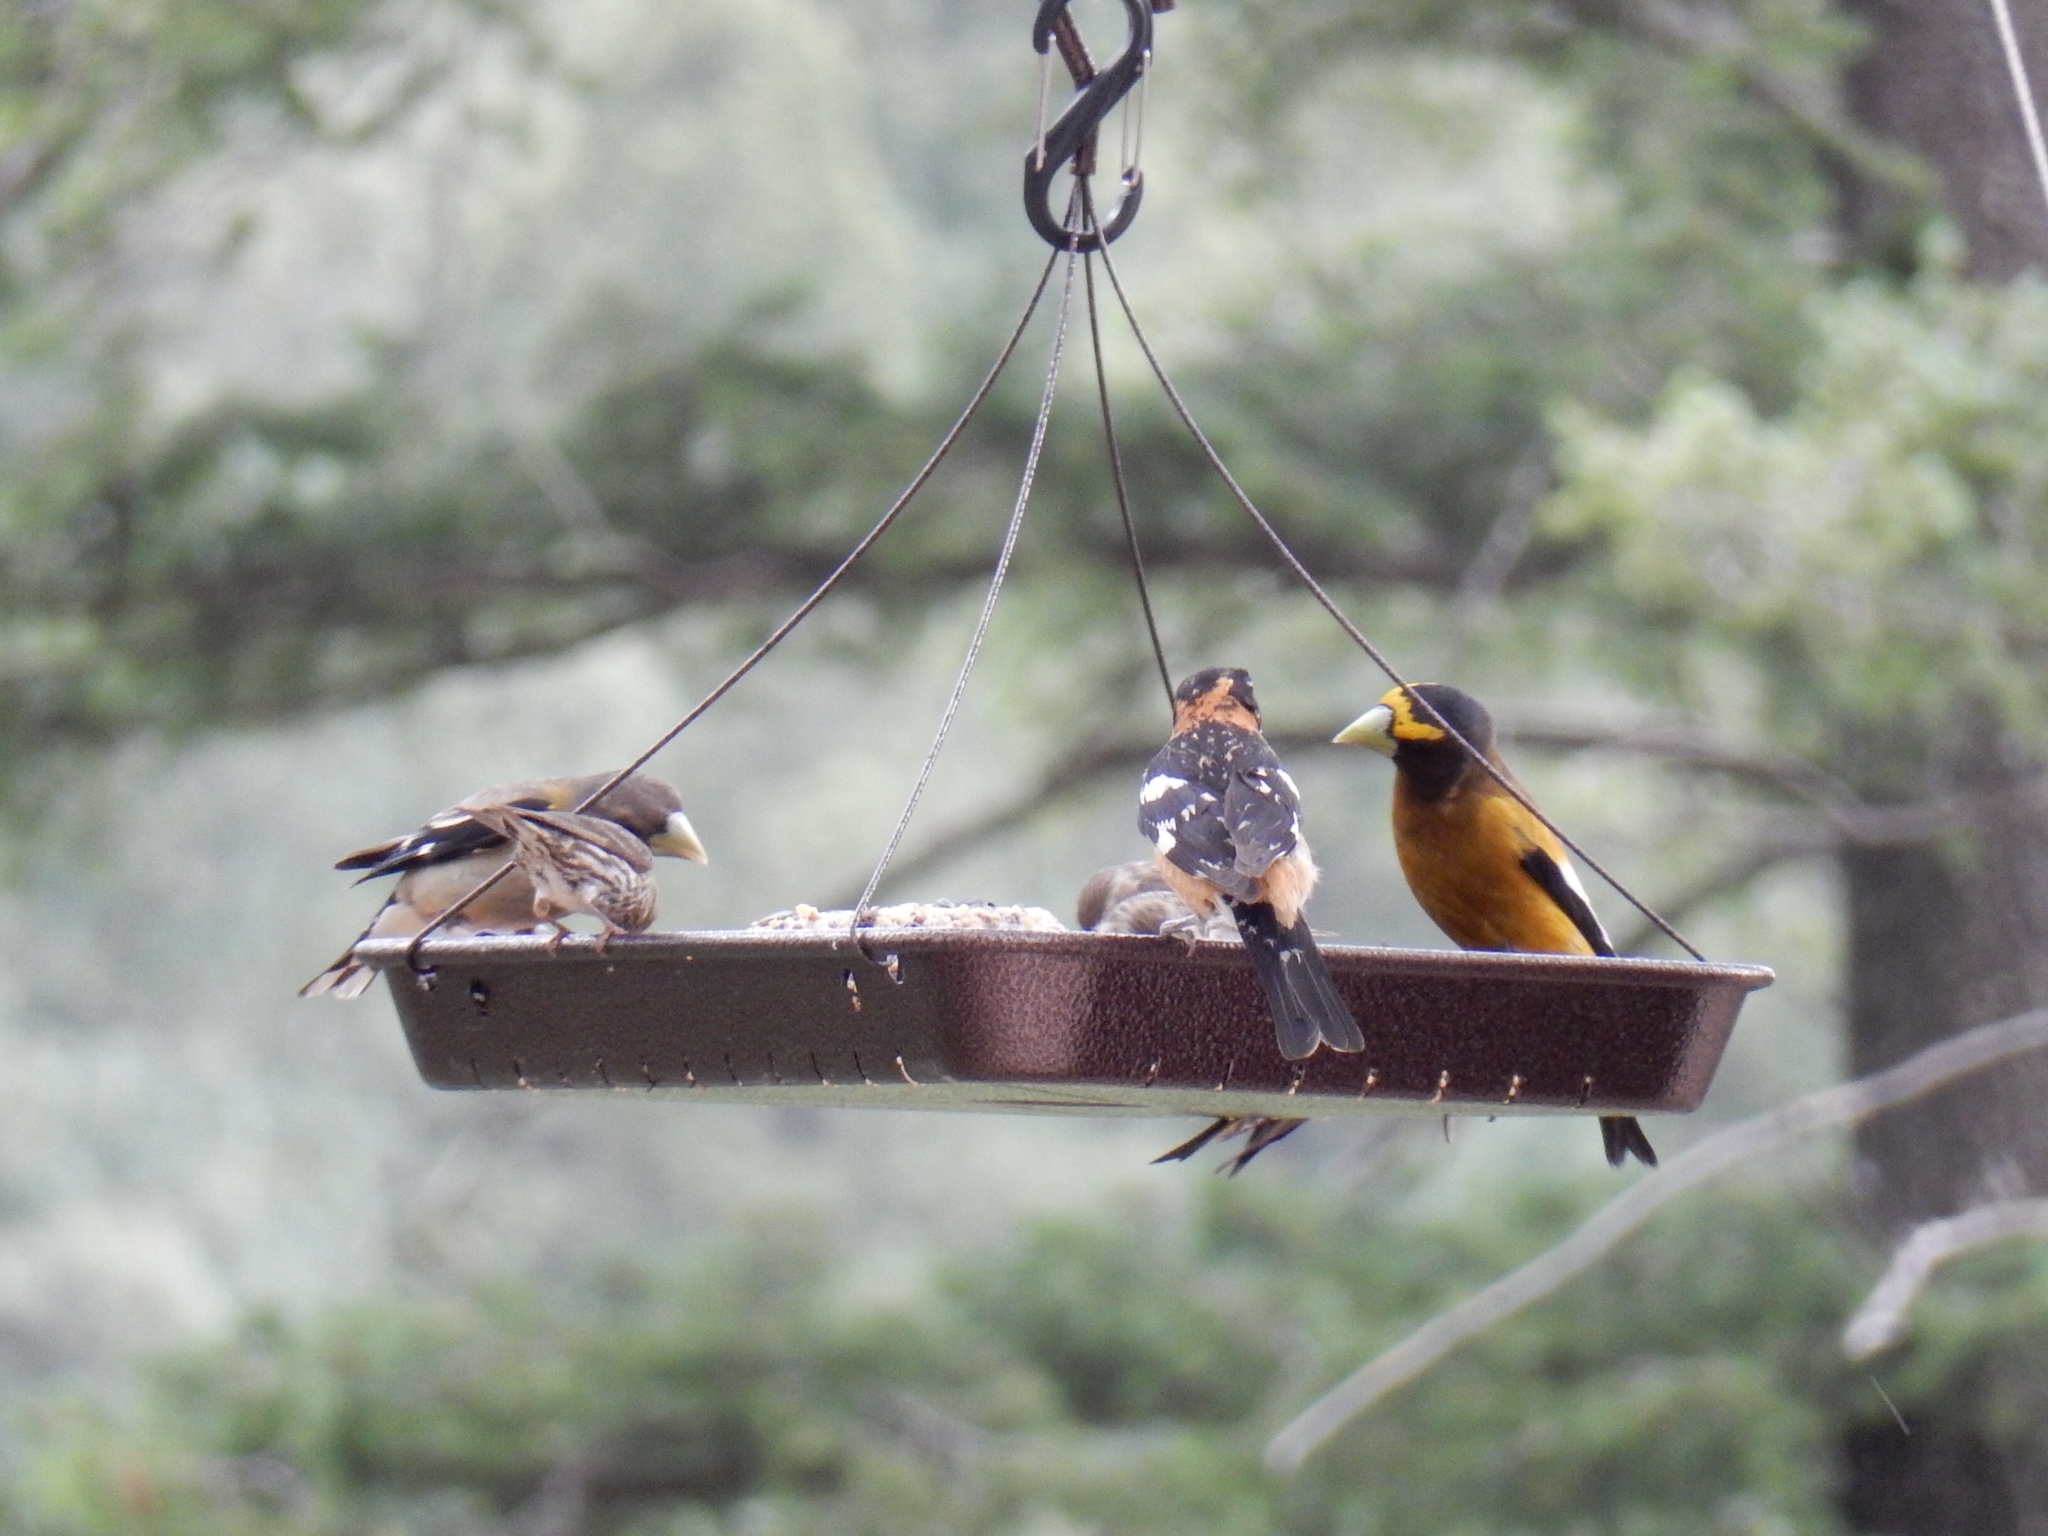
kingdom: Animalia
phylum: Chordata
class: Aves
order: Passeriformes
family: Fringillidae
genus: Hesperiphona
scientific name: Hesperiphona vespertina
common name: Evening grosbeak
